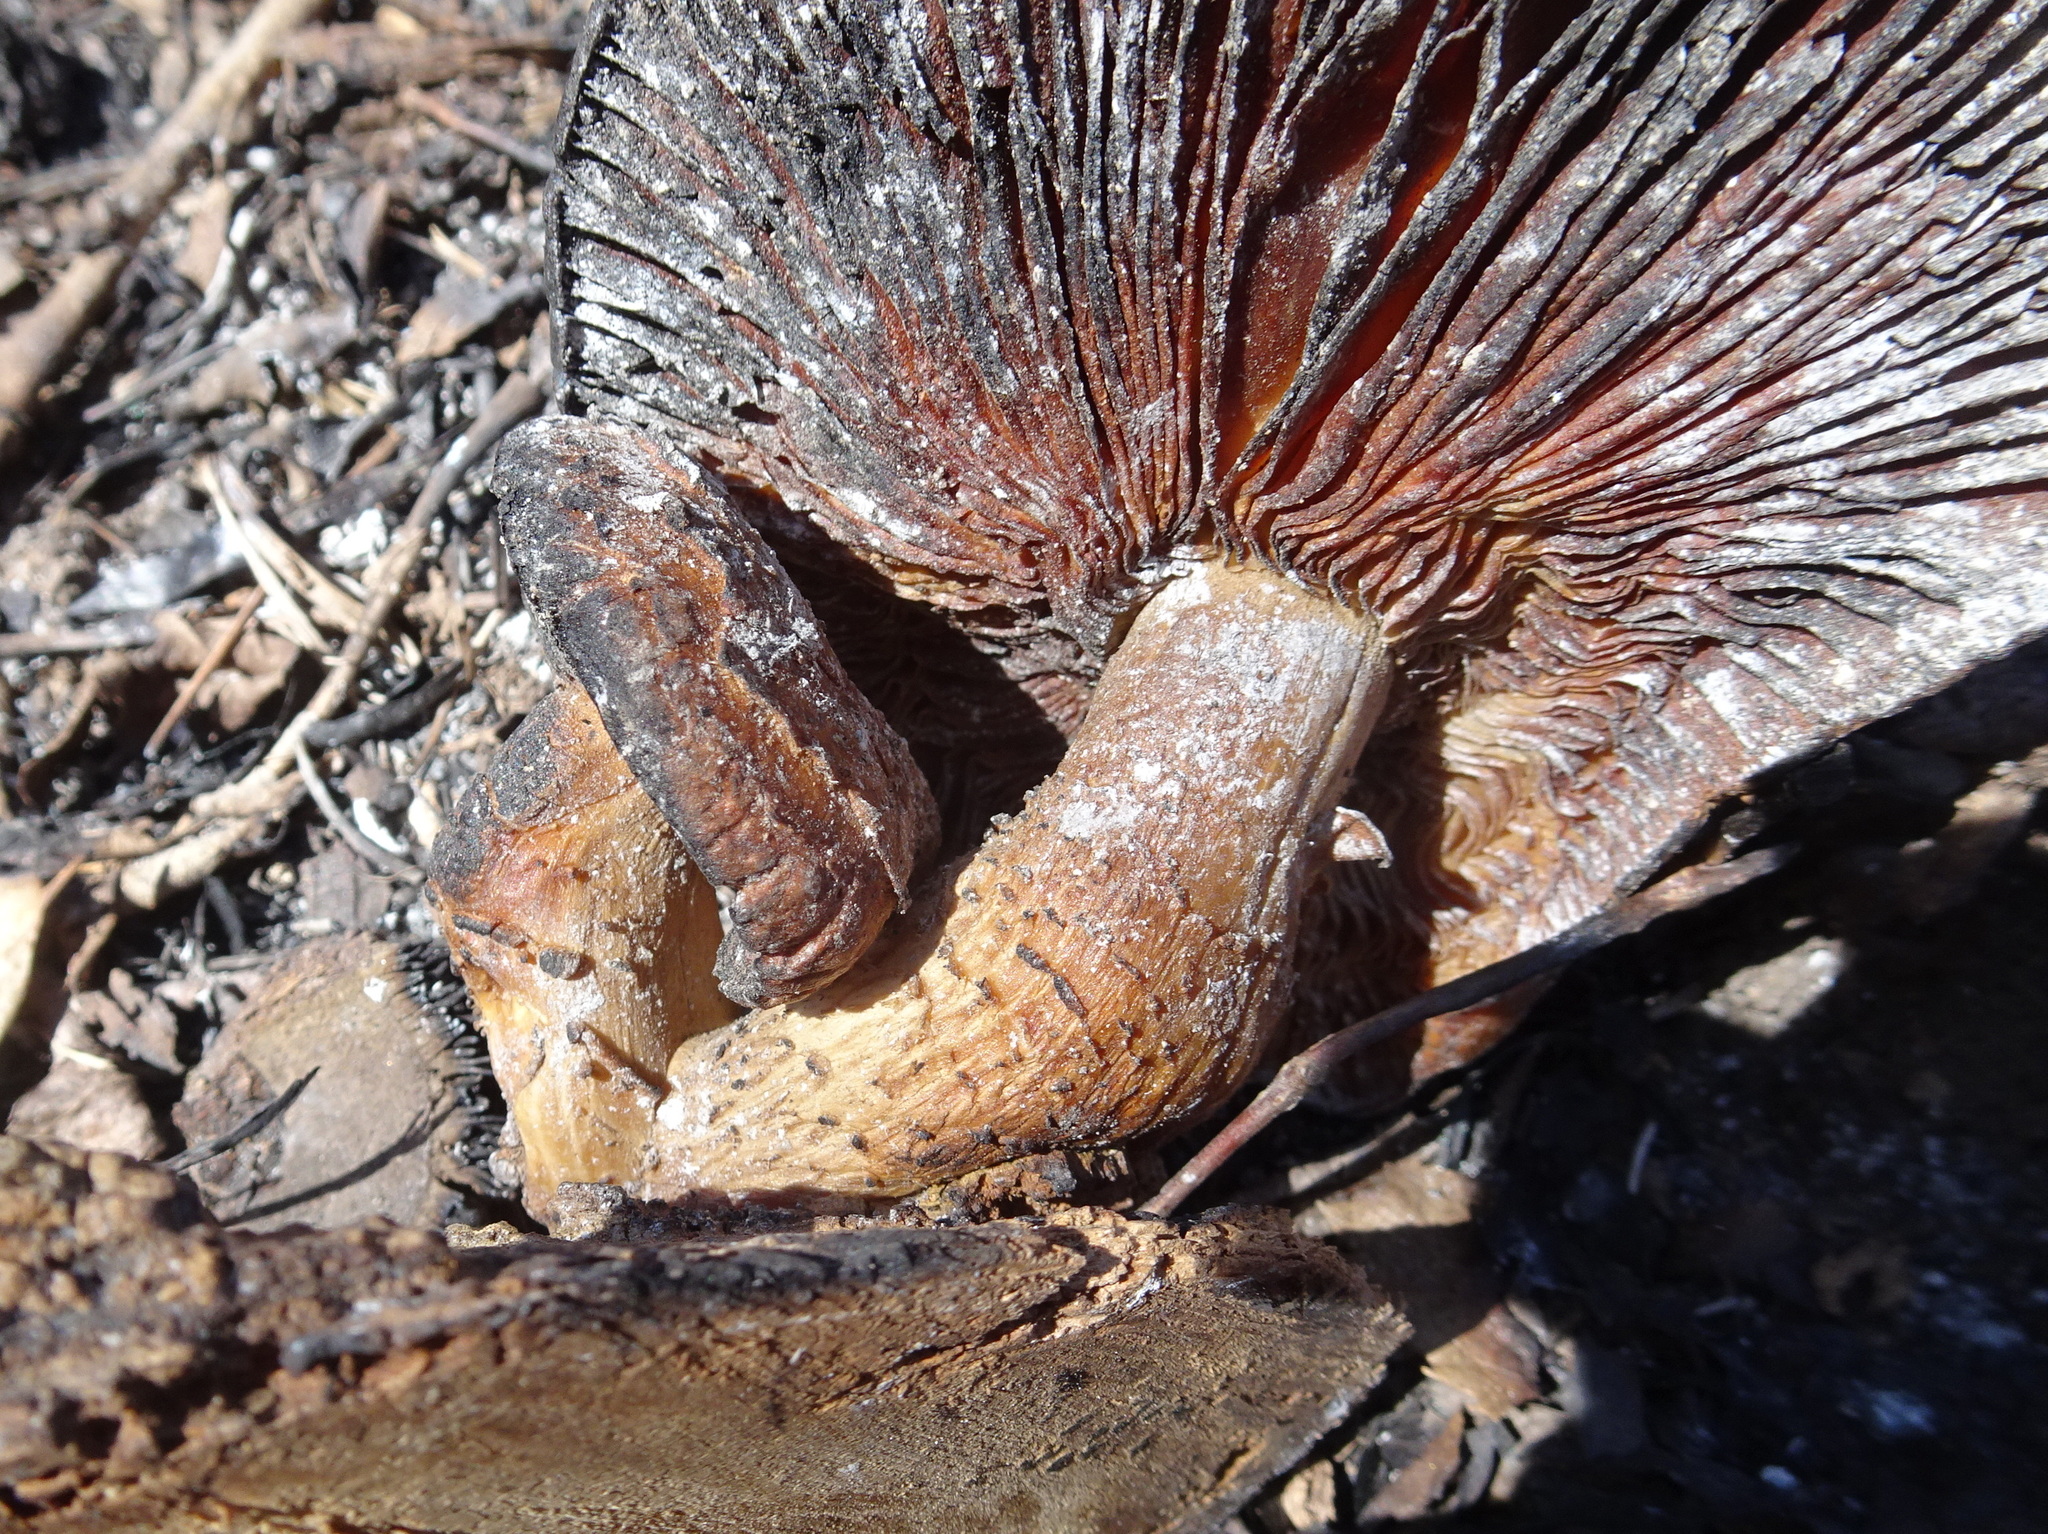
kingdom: Fungi
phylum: Basidiomycota
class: Agaricomycetes
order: Agaricales
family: Lyophyllaceae
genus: Hypsizygus
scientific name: Hypsizygus ulmarius
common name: Elm leech
